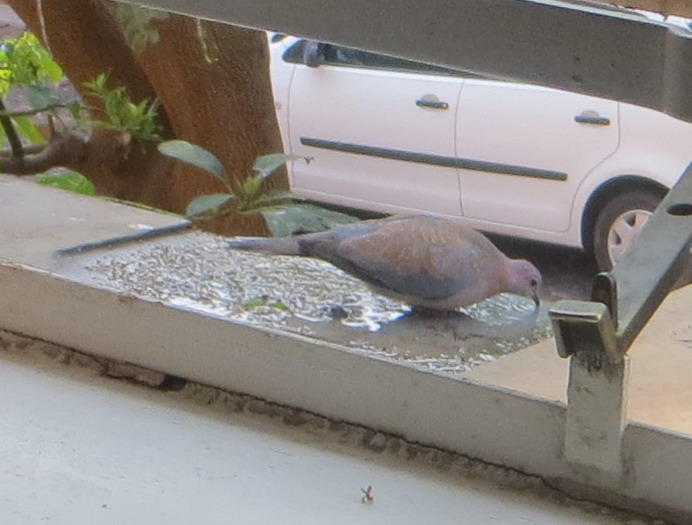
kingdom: Animalia
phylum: Chordata
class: Aves
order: Columbiformes
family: Columbidae
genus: Spilopelia
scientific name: Spilopelia senegalensis
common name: Laughing dove
